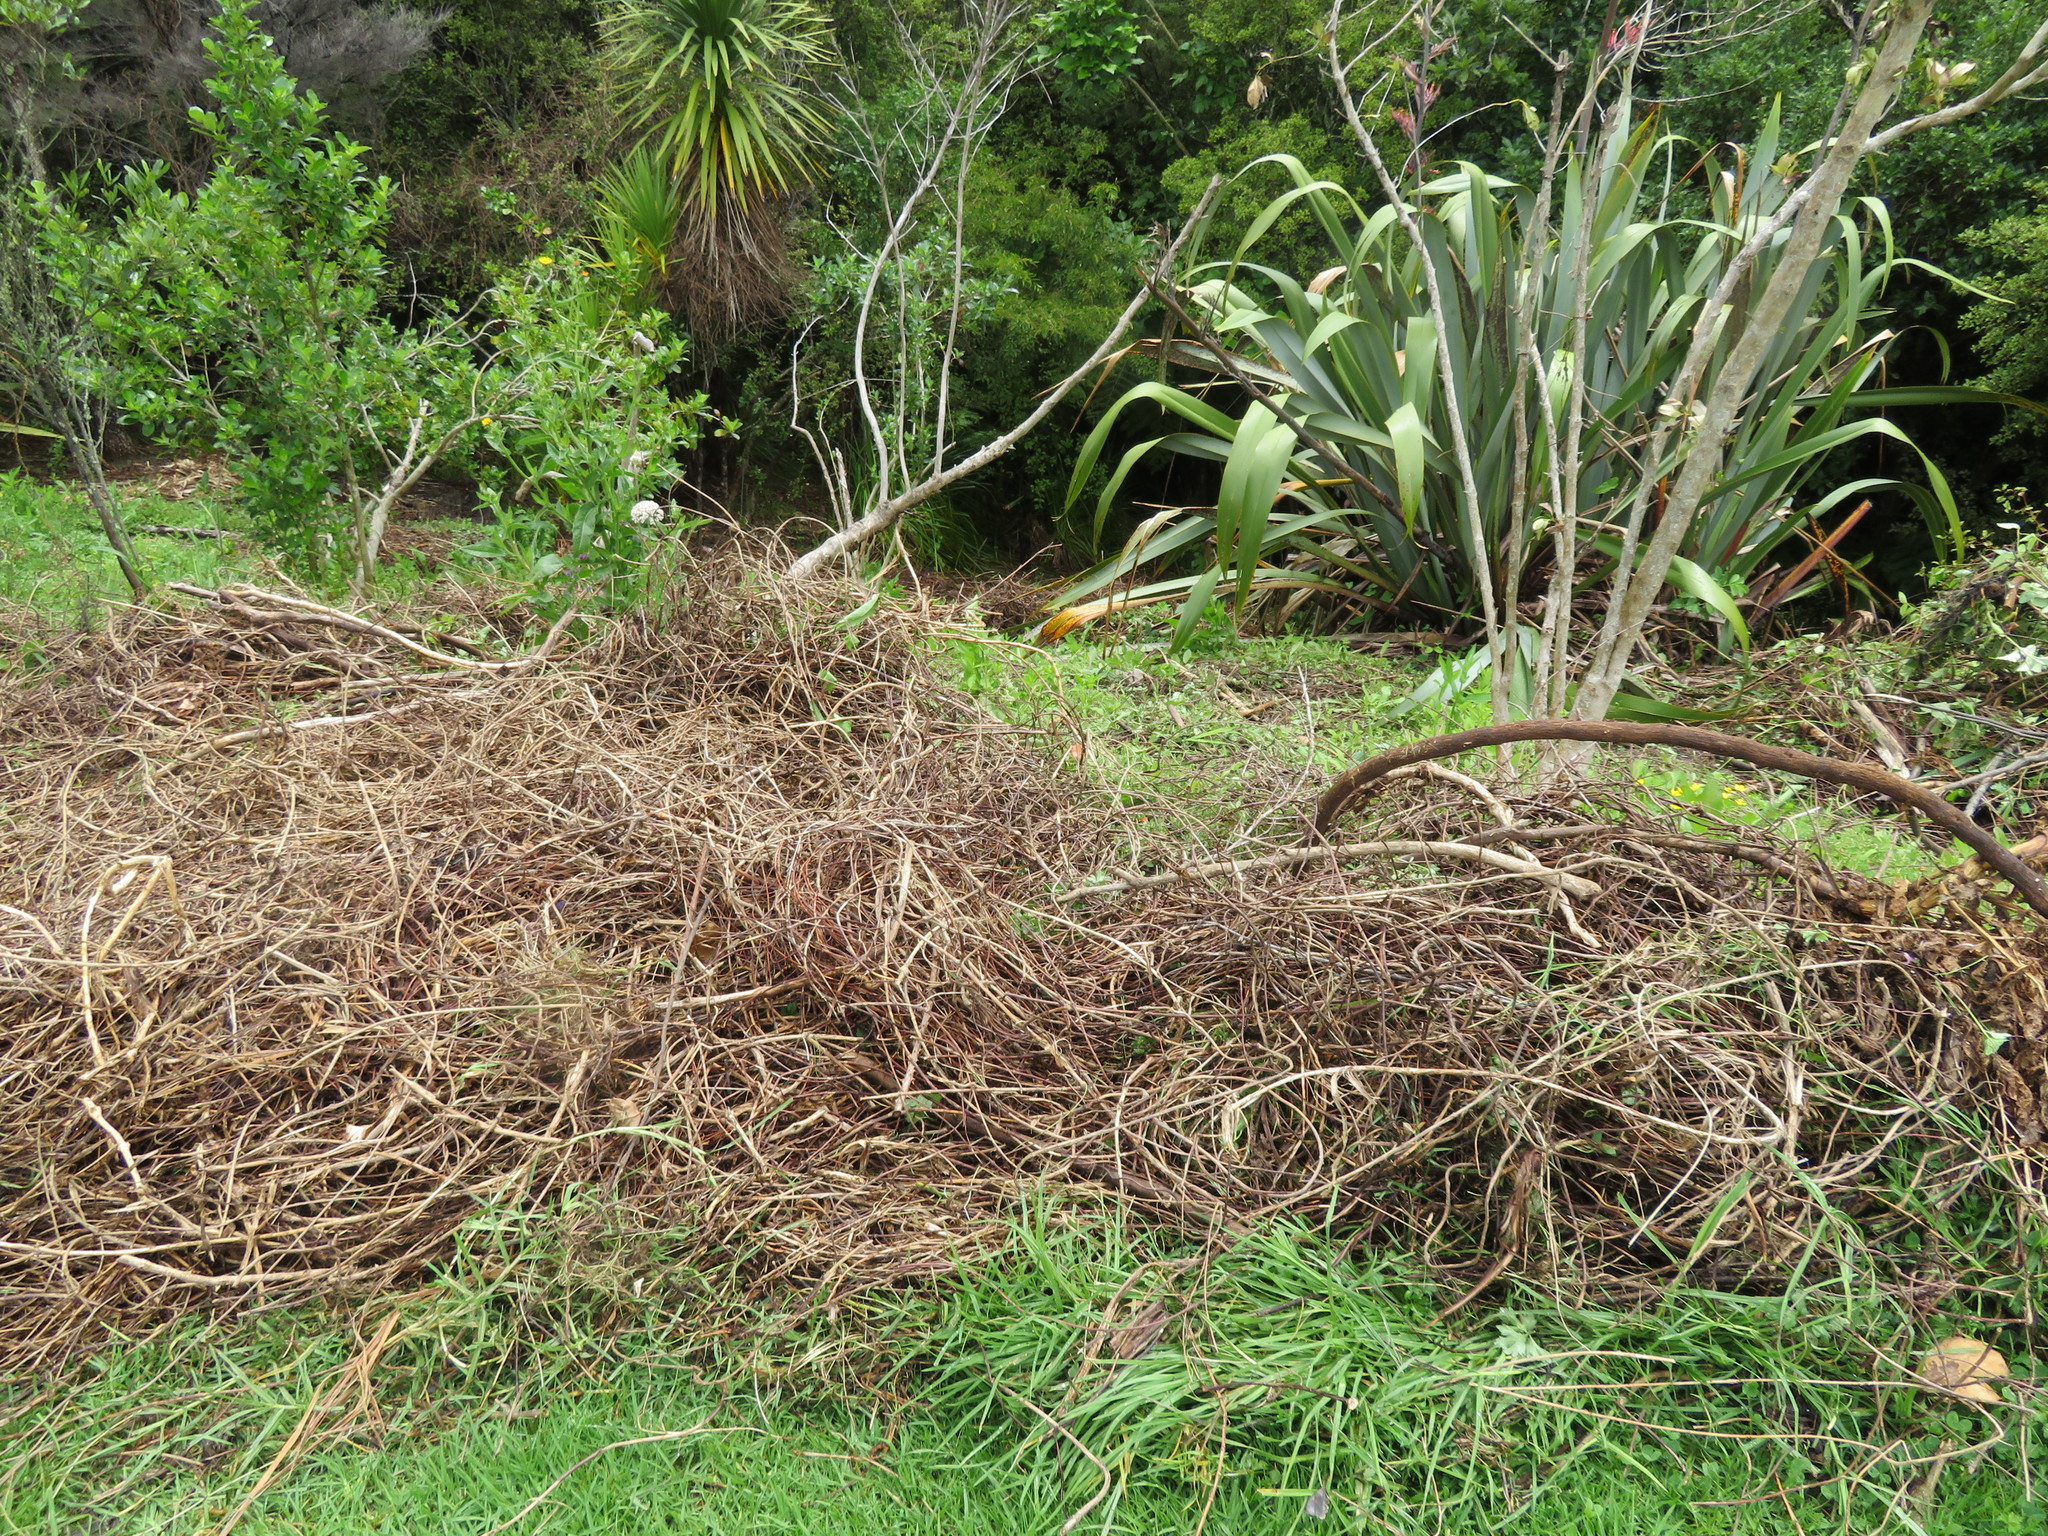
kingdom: Plantae
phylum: Tracheophyta
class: Magnoliopsida
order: Gentianales
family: Rubiaceae
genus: Coprosma
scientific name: Coprosma robusta
